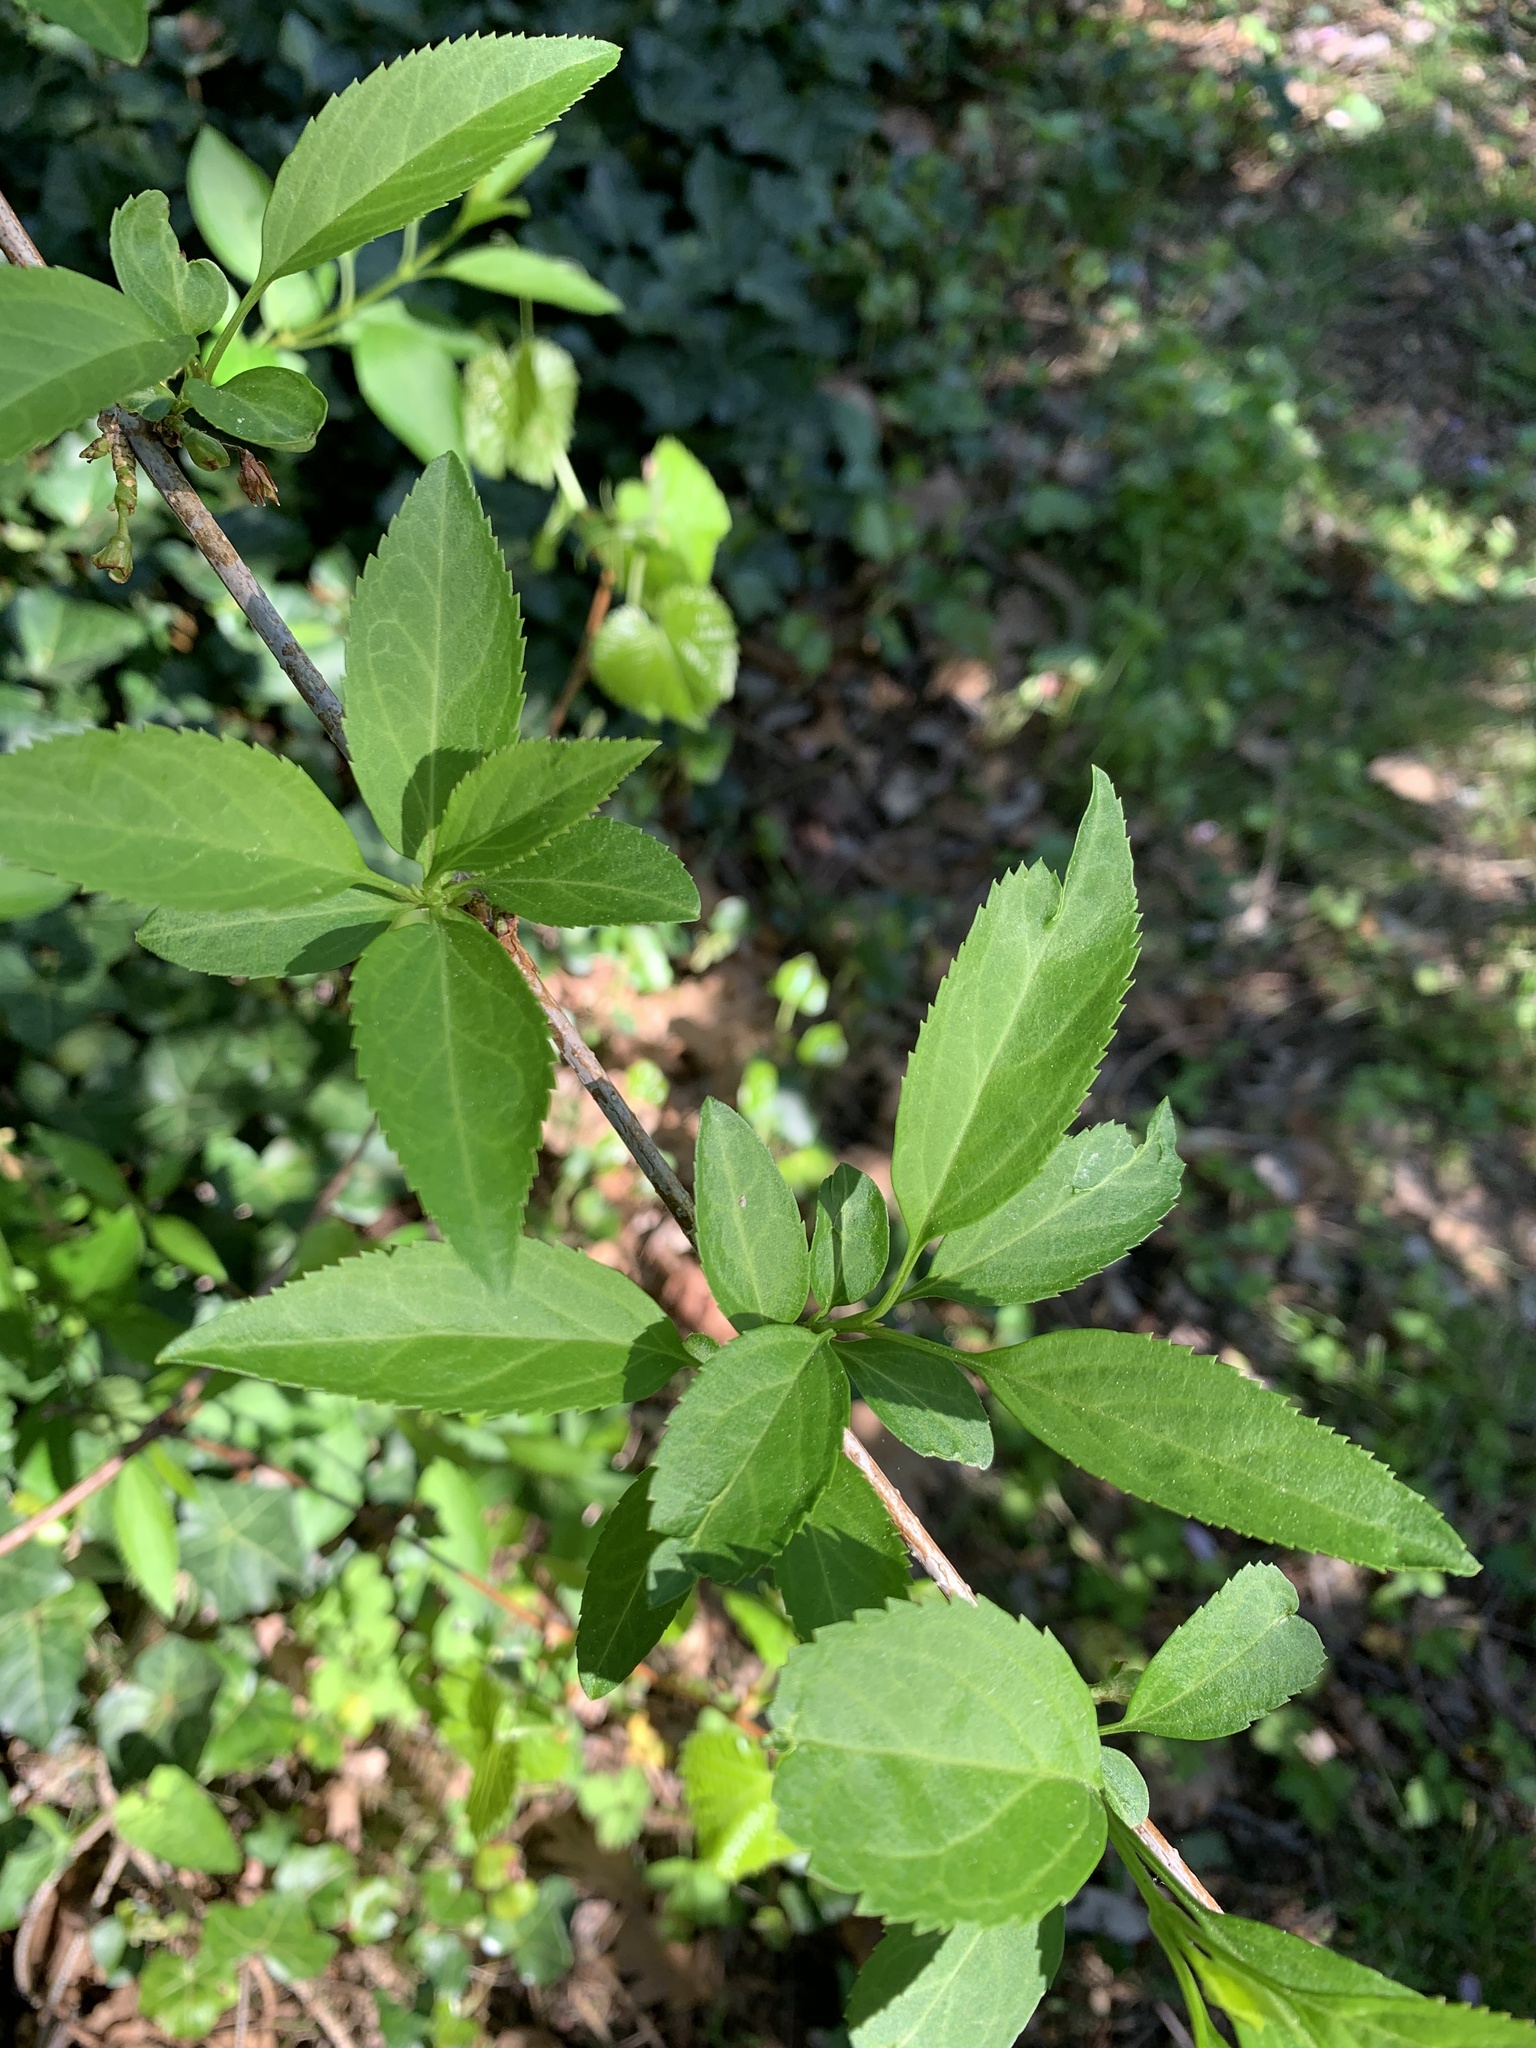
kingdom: Plantae
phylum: Tracheophyta
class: Magnoliopsida
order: Lamiales
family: Oleaceae
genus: Forsythia
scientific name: Forsythia intermedia
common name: Forsythia
